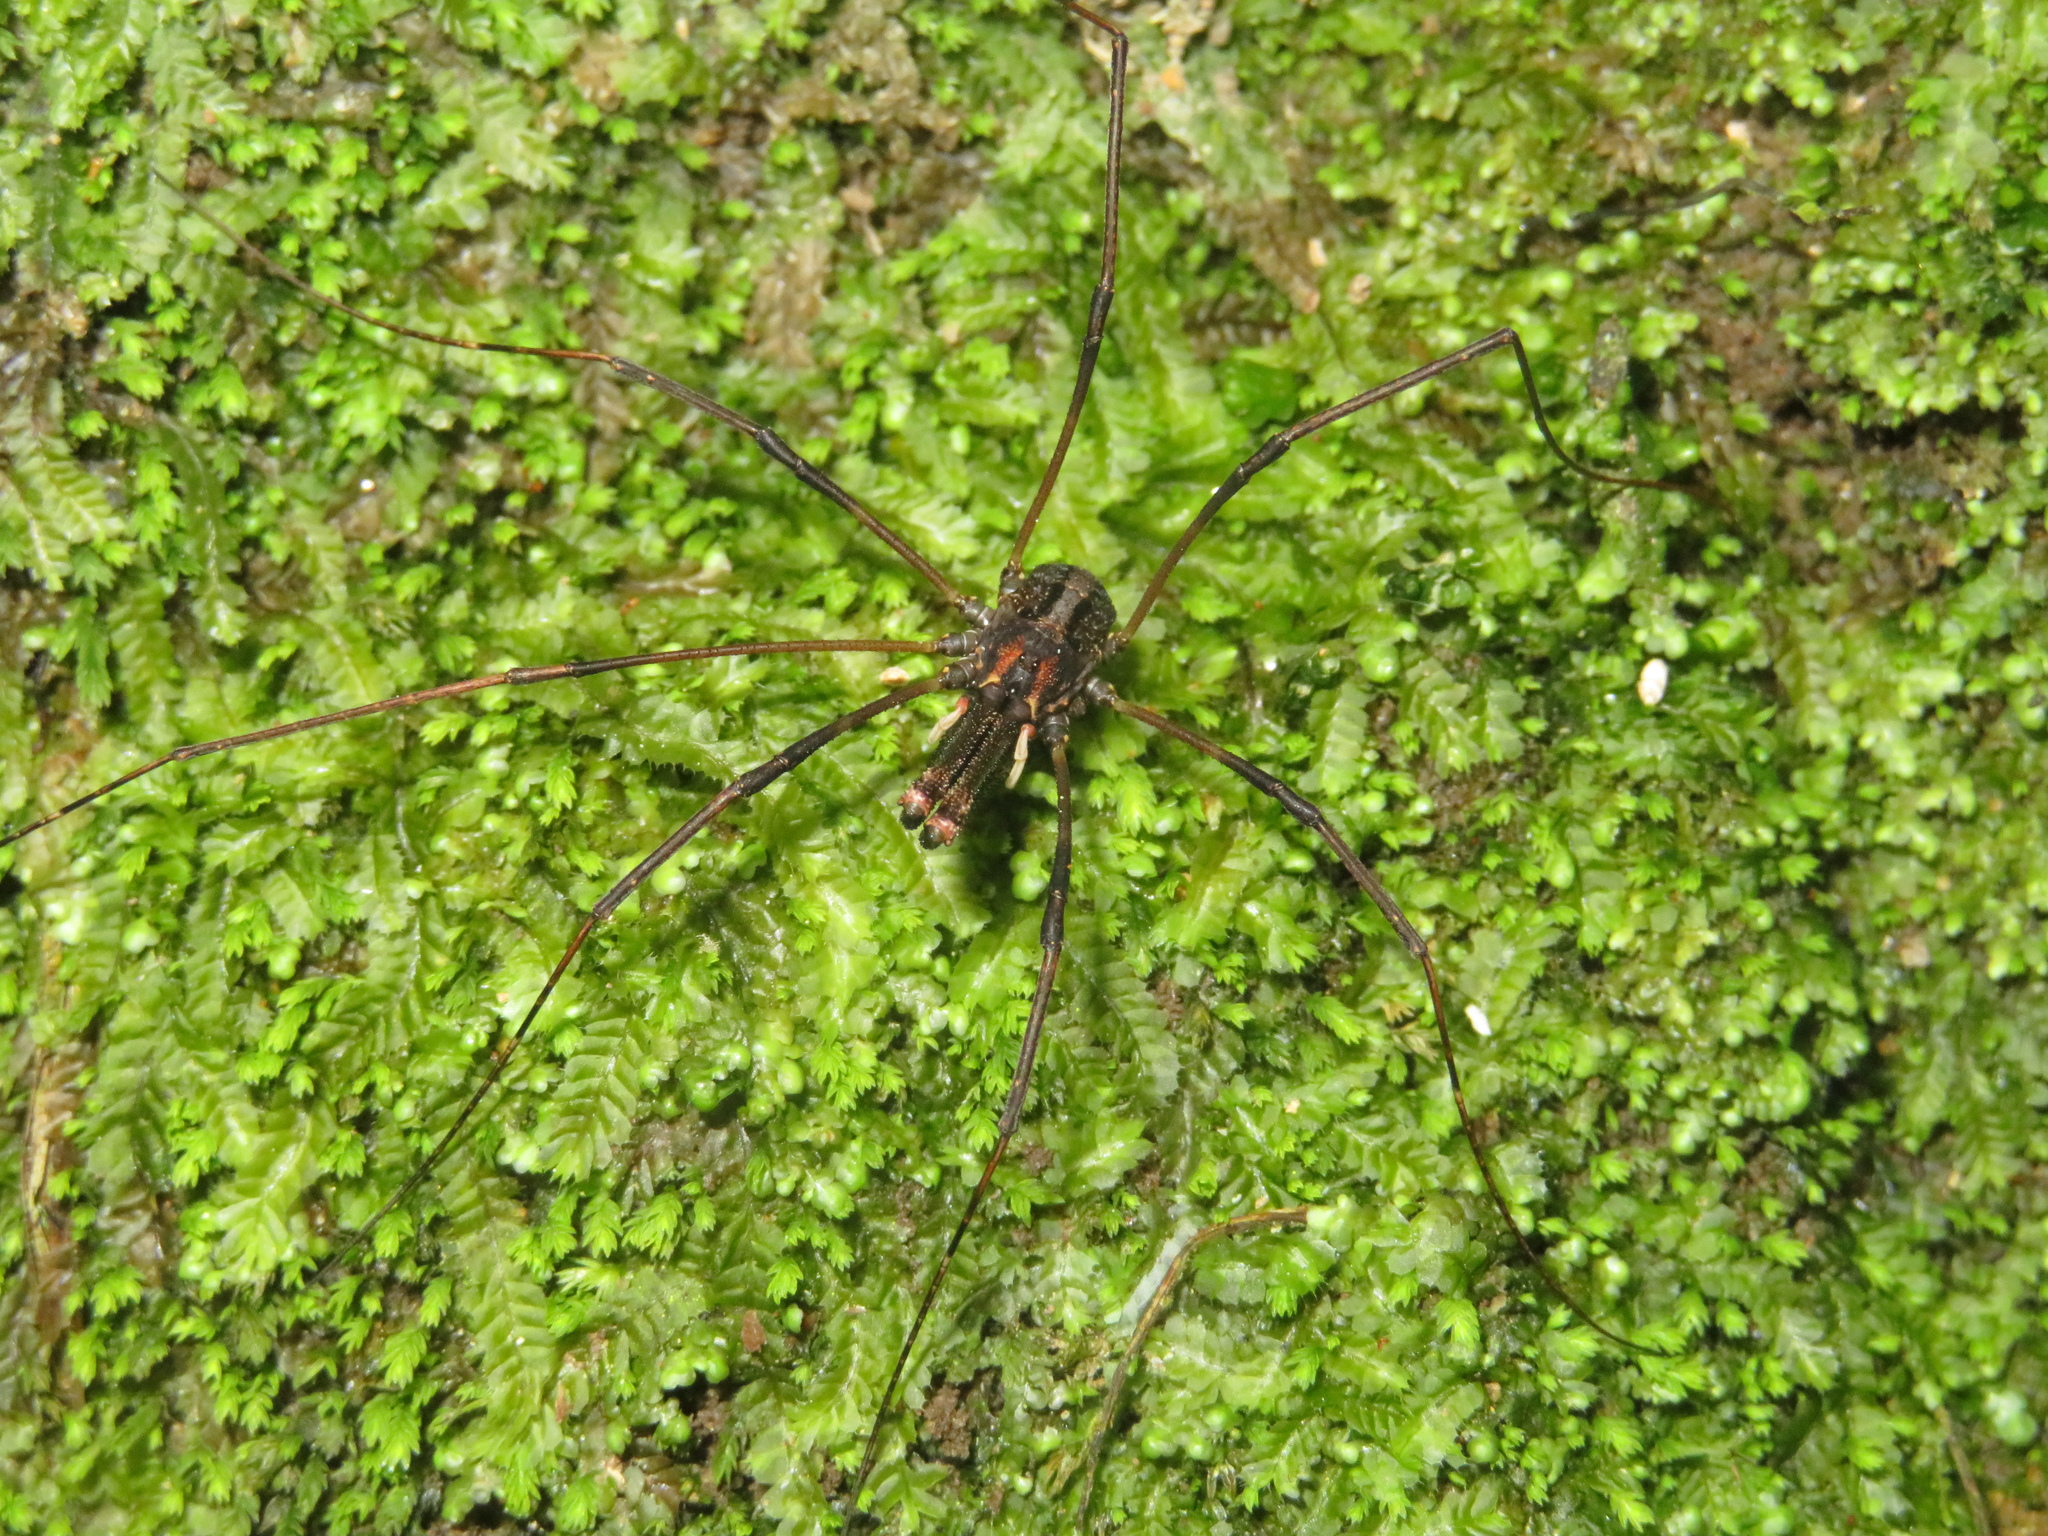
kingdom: Animalia
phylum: Arthropoda
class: Arachnida
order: Opiliones
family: Neopilionidae
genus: Forsteropsalis
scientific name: Forsteropsalis inconstans
